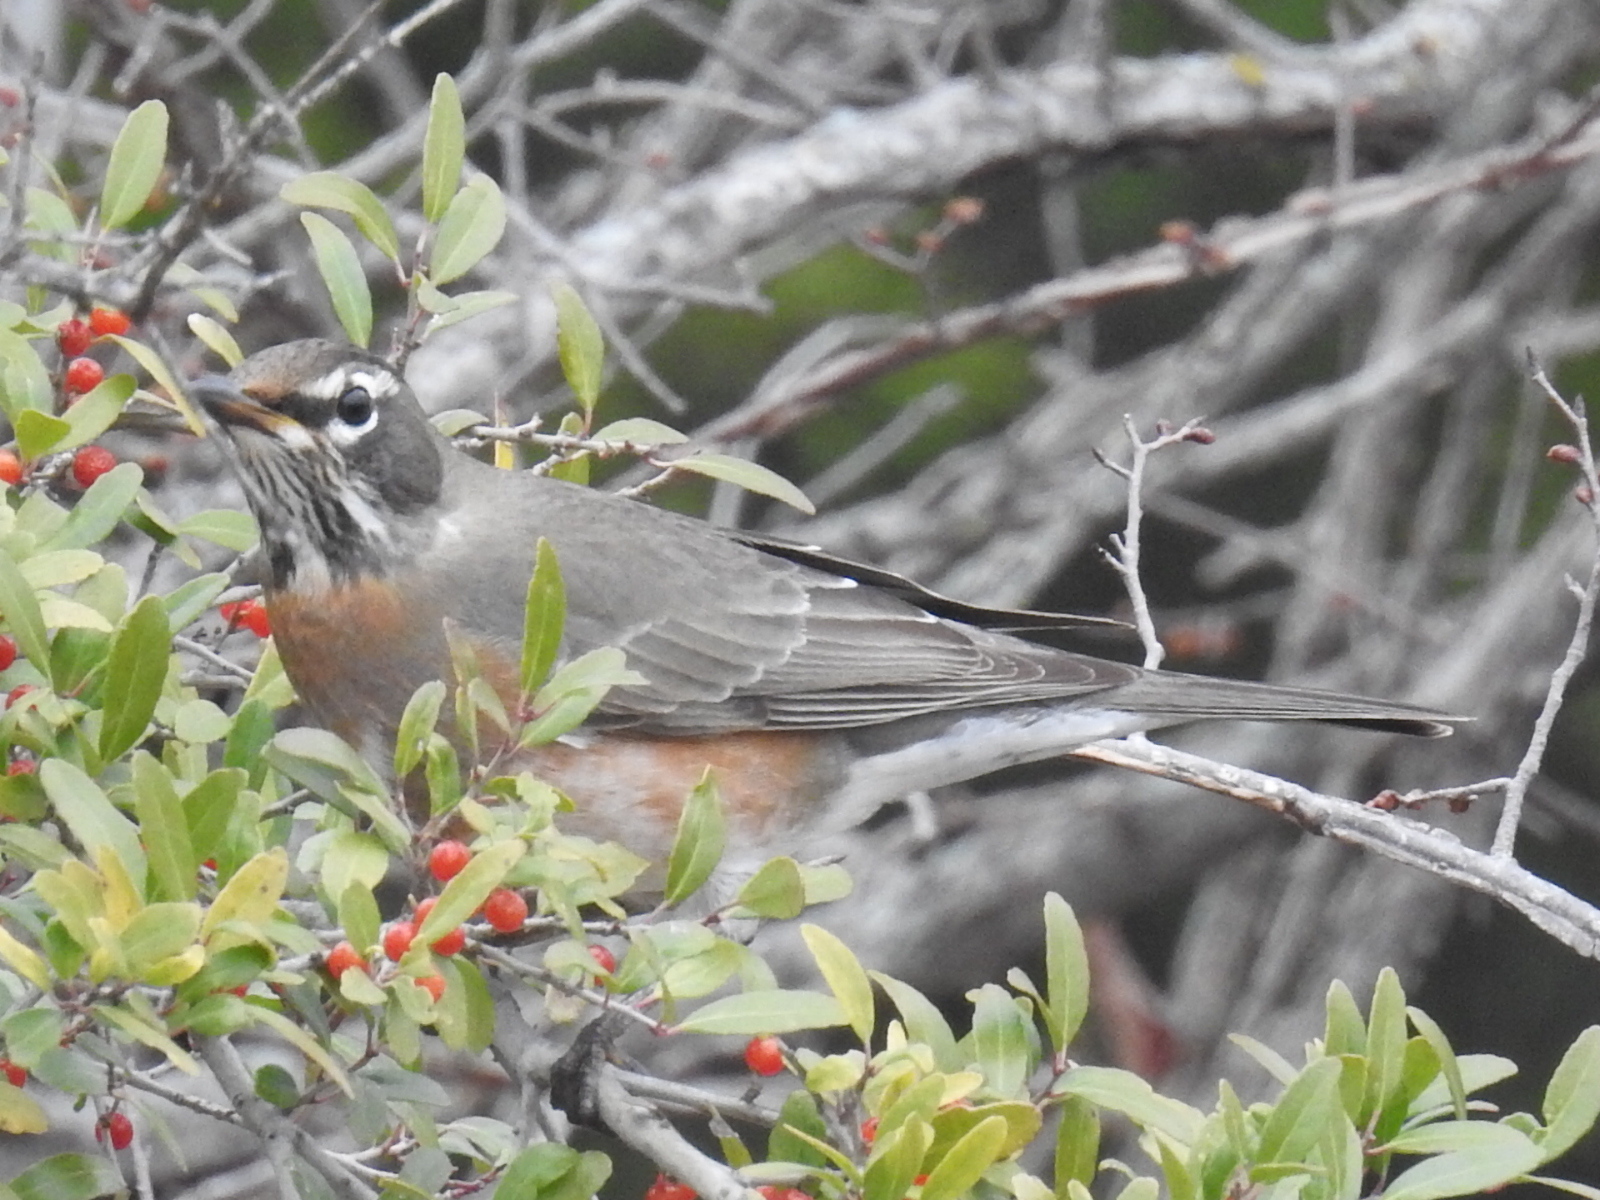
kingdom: Animalia
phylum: Chordata
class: Aves
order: Passeriformes
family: Turdidae
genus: Turdus
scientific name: Turdus migratorius
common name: American robin
